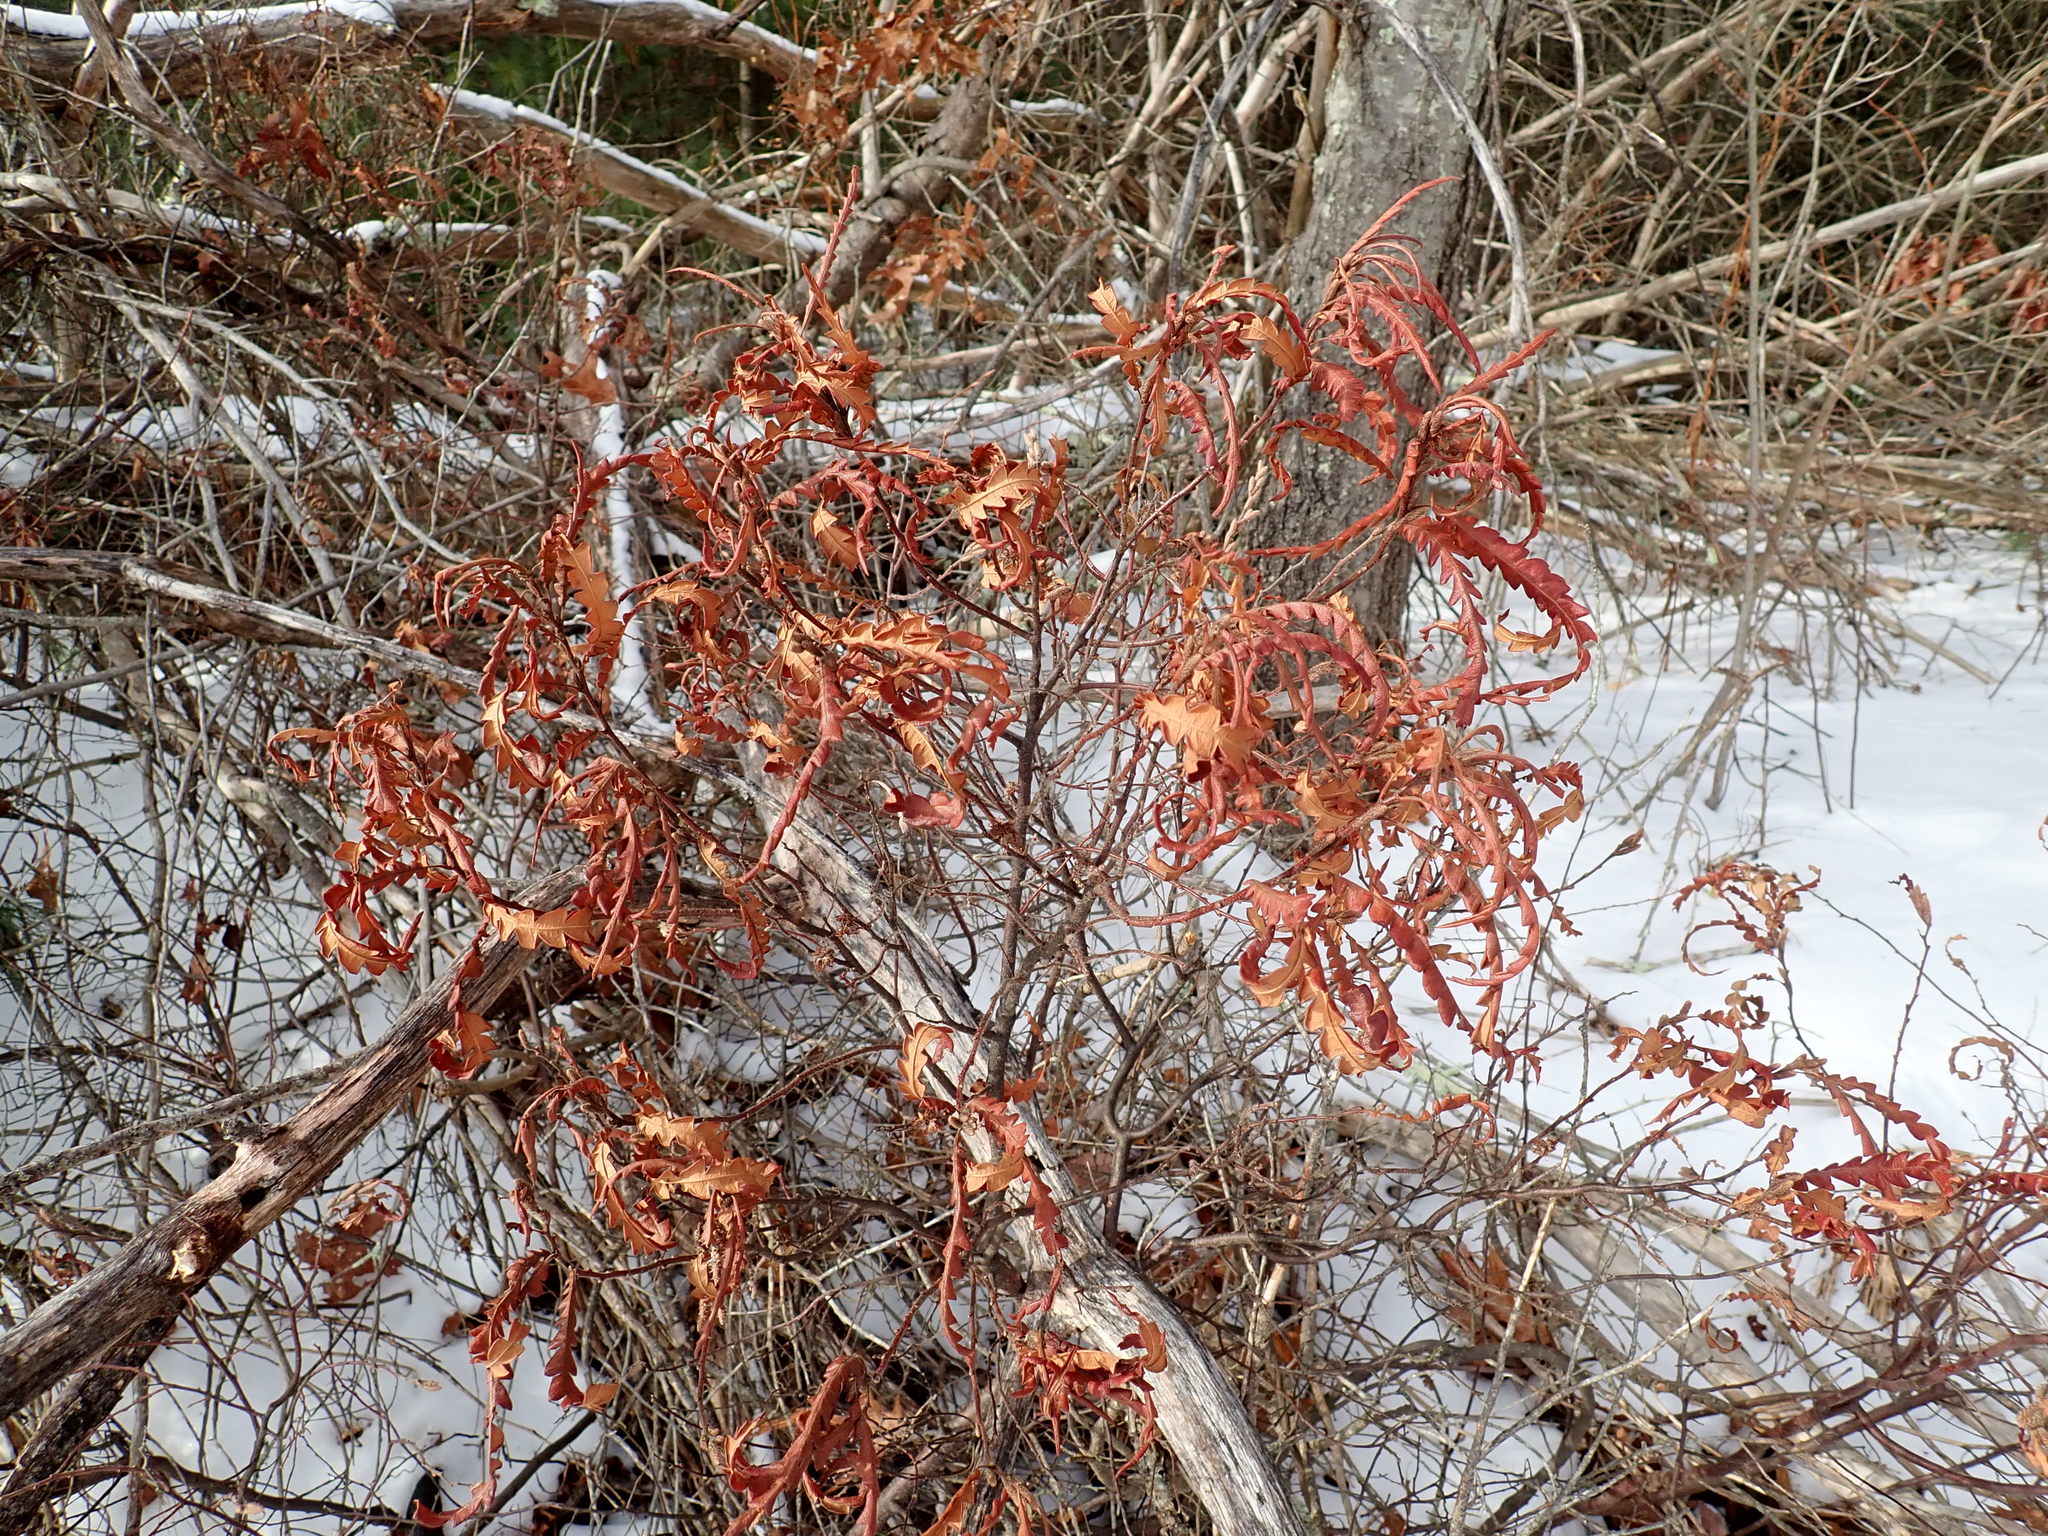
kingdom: Plantae
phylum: Tracheophyta
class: Magnoliopsida
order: Fagales
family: Myricaceae
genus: Comptonia
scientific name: Comptonia peregrina
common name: Sweet-fern
